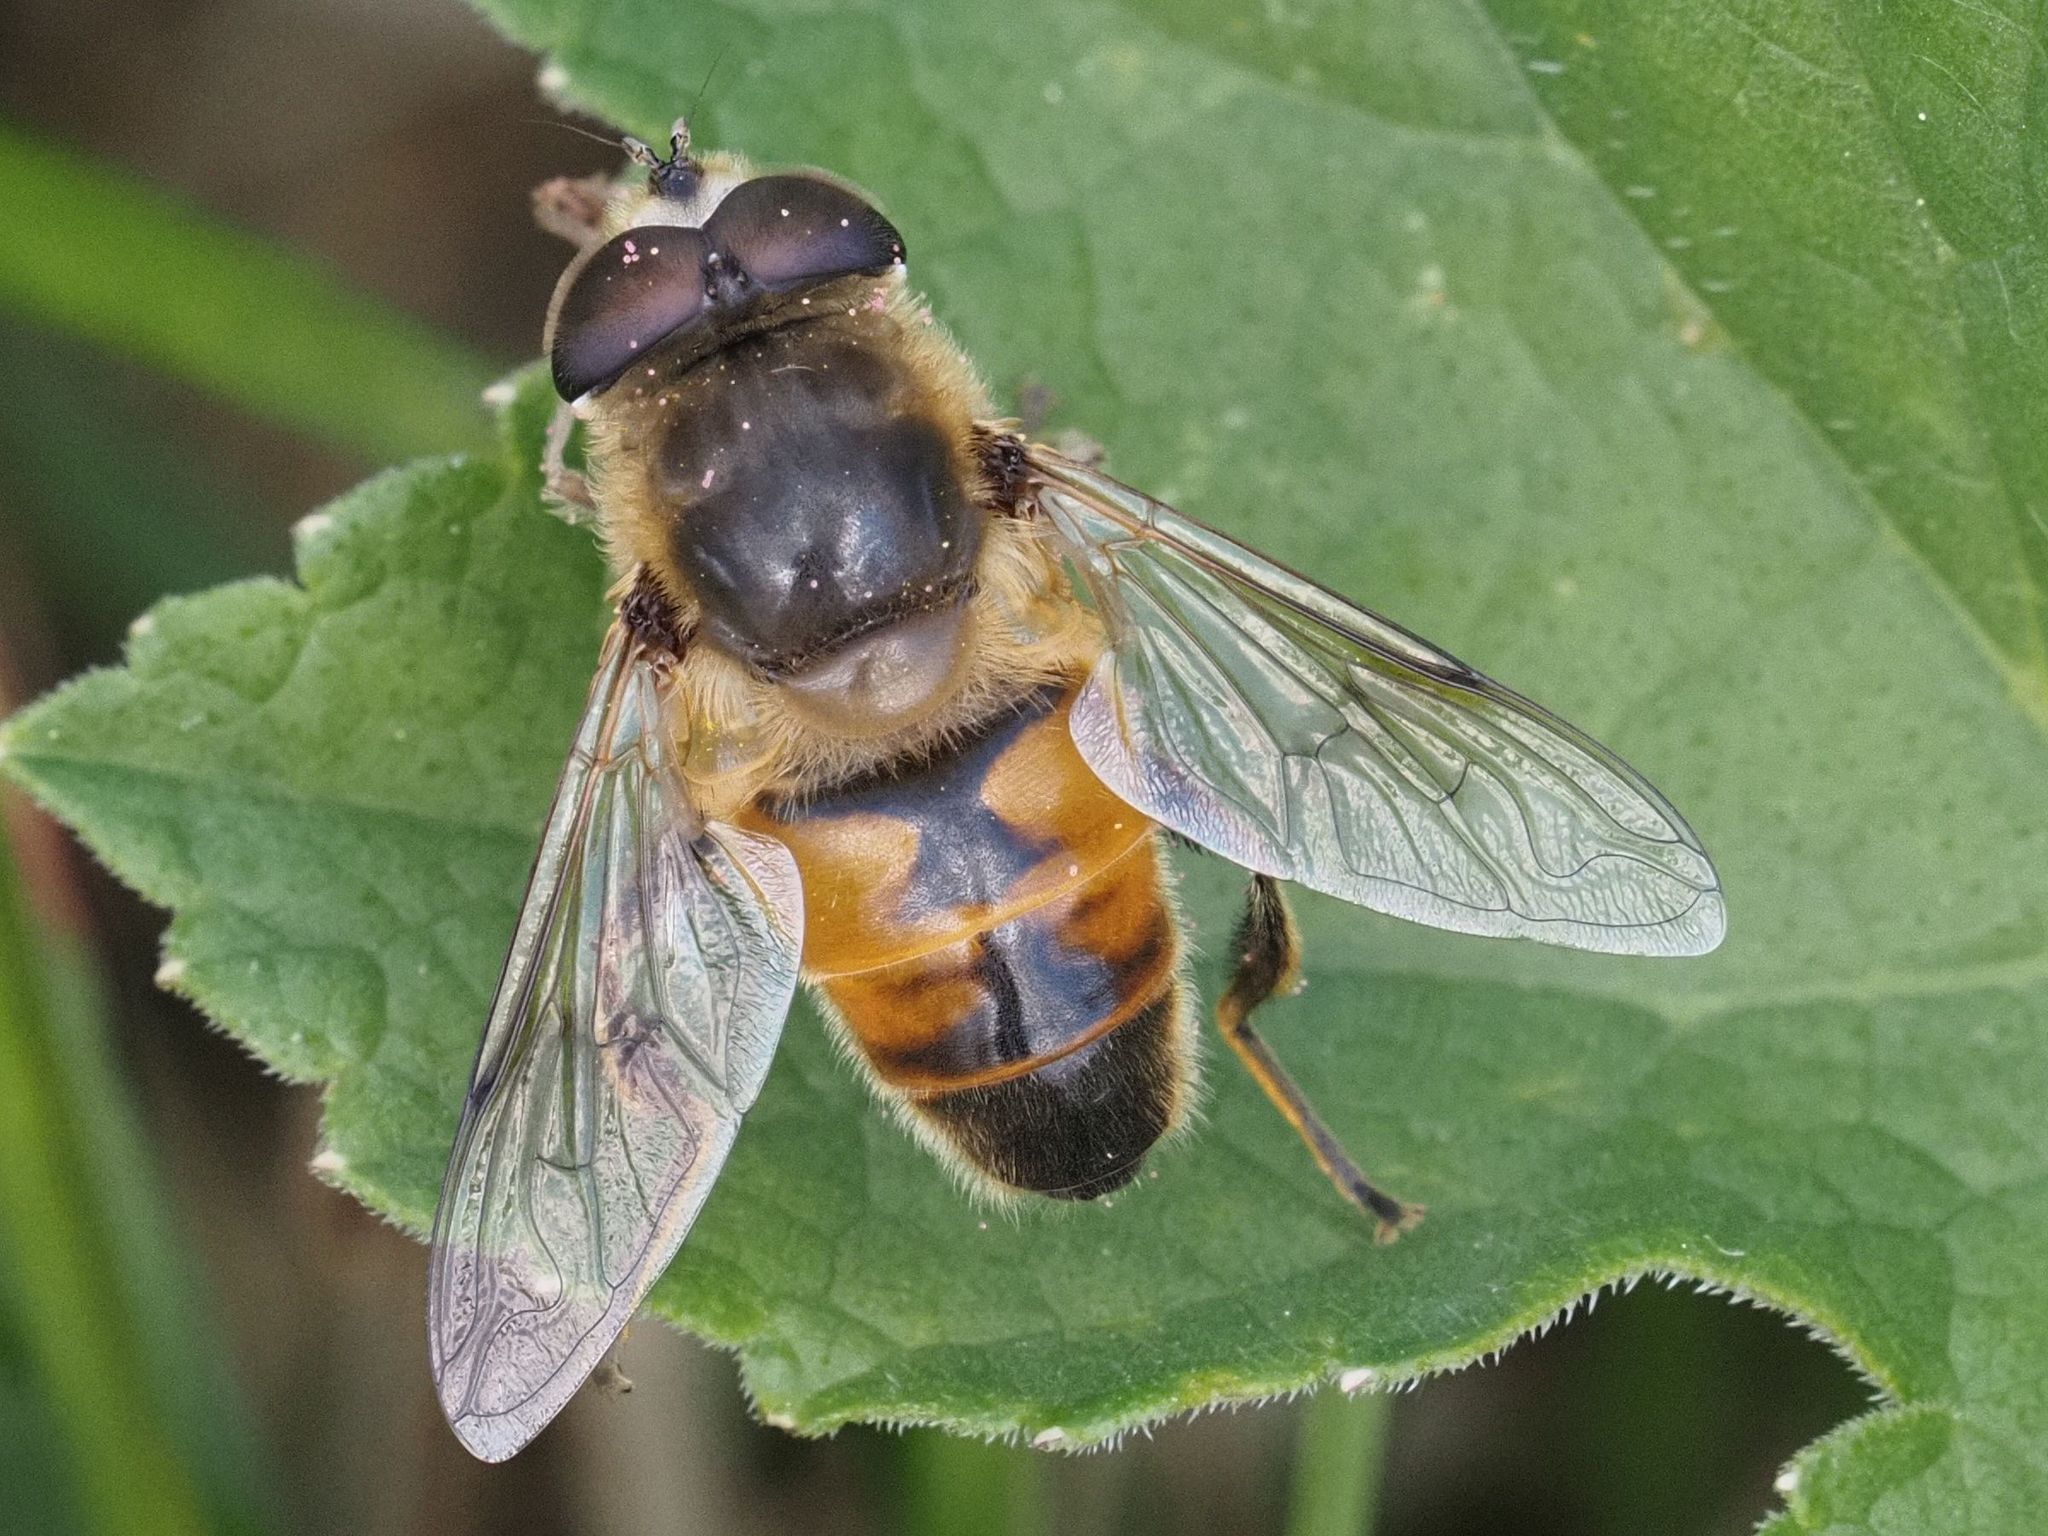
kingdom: Animalia
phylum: Arthropoda
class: Insecta
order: Diptera
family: Syrphidae
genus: Eristalis
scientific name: Eristalis tenax
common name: Drone fly
